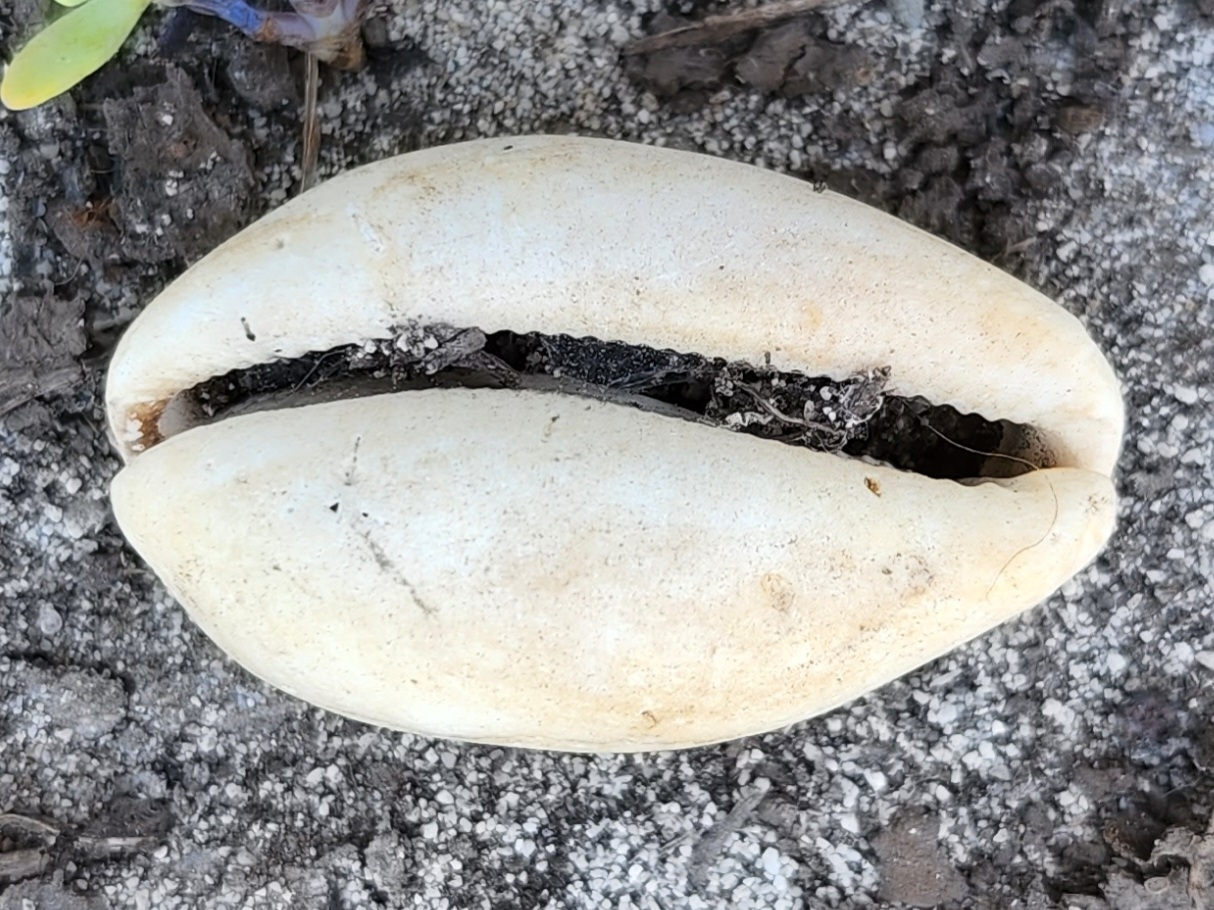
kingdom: Animalia
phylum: Mollusca
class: Gastropoda
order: Littorinimorpha
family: Cypraeidae
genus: Lyncina
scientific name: Lyncina schilderorum
